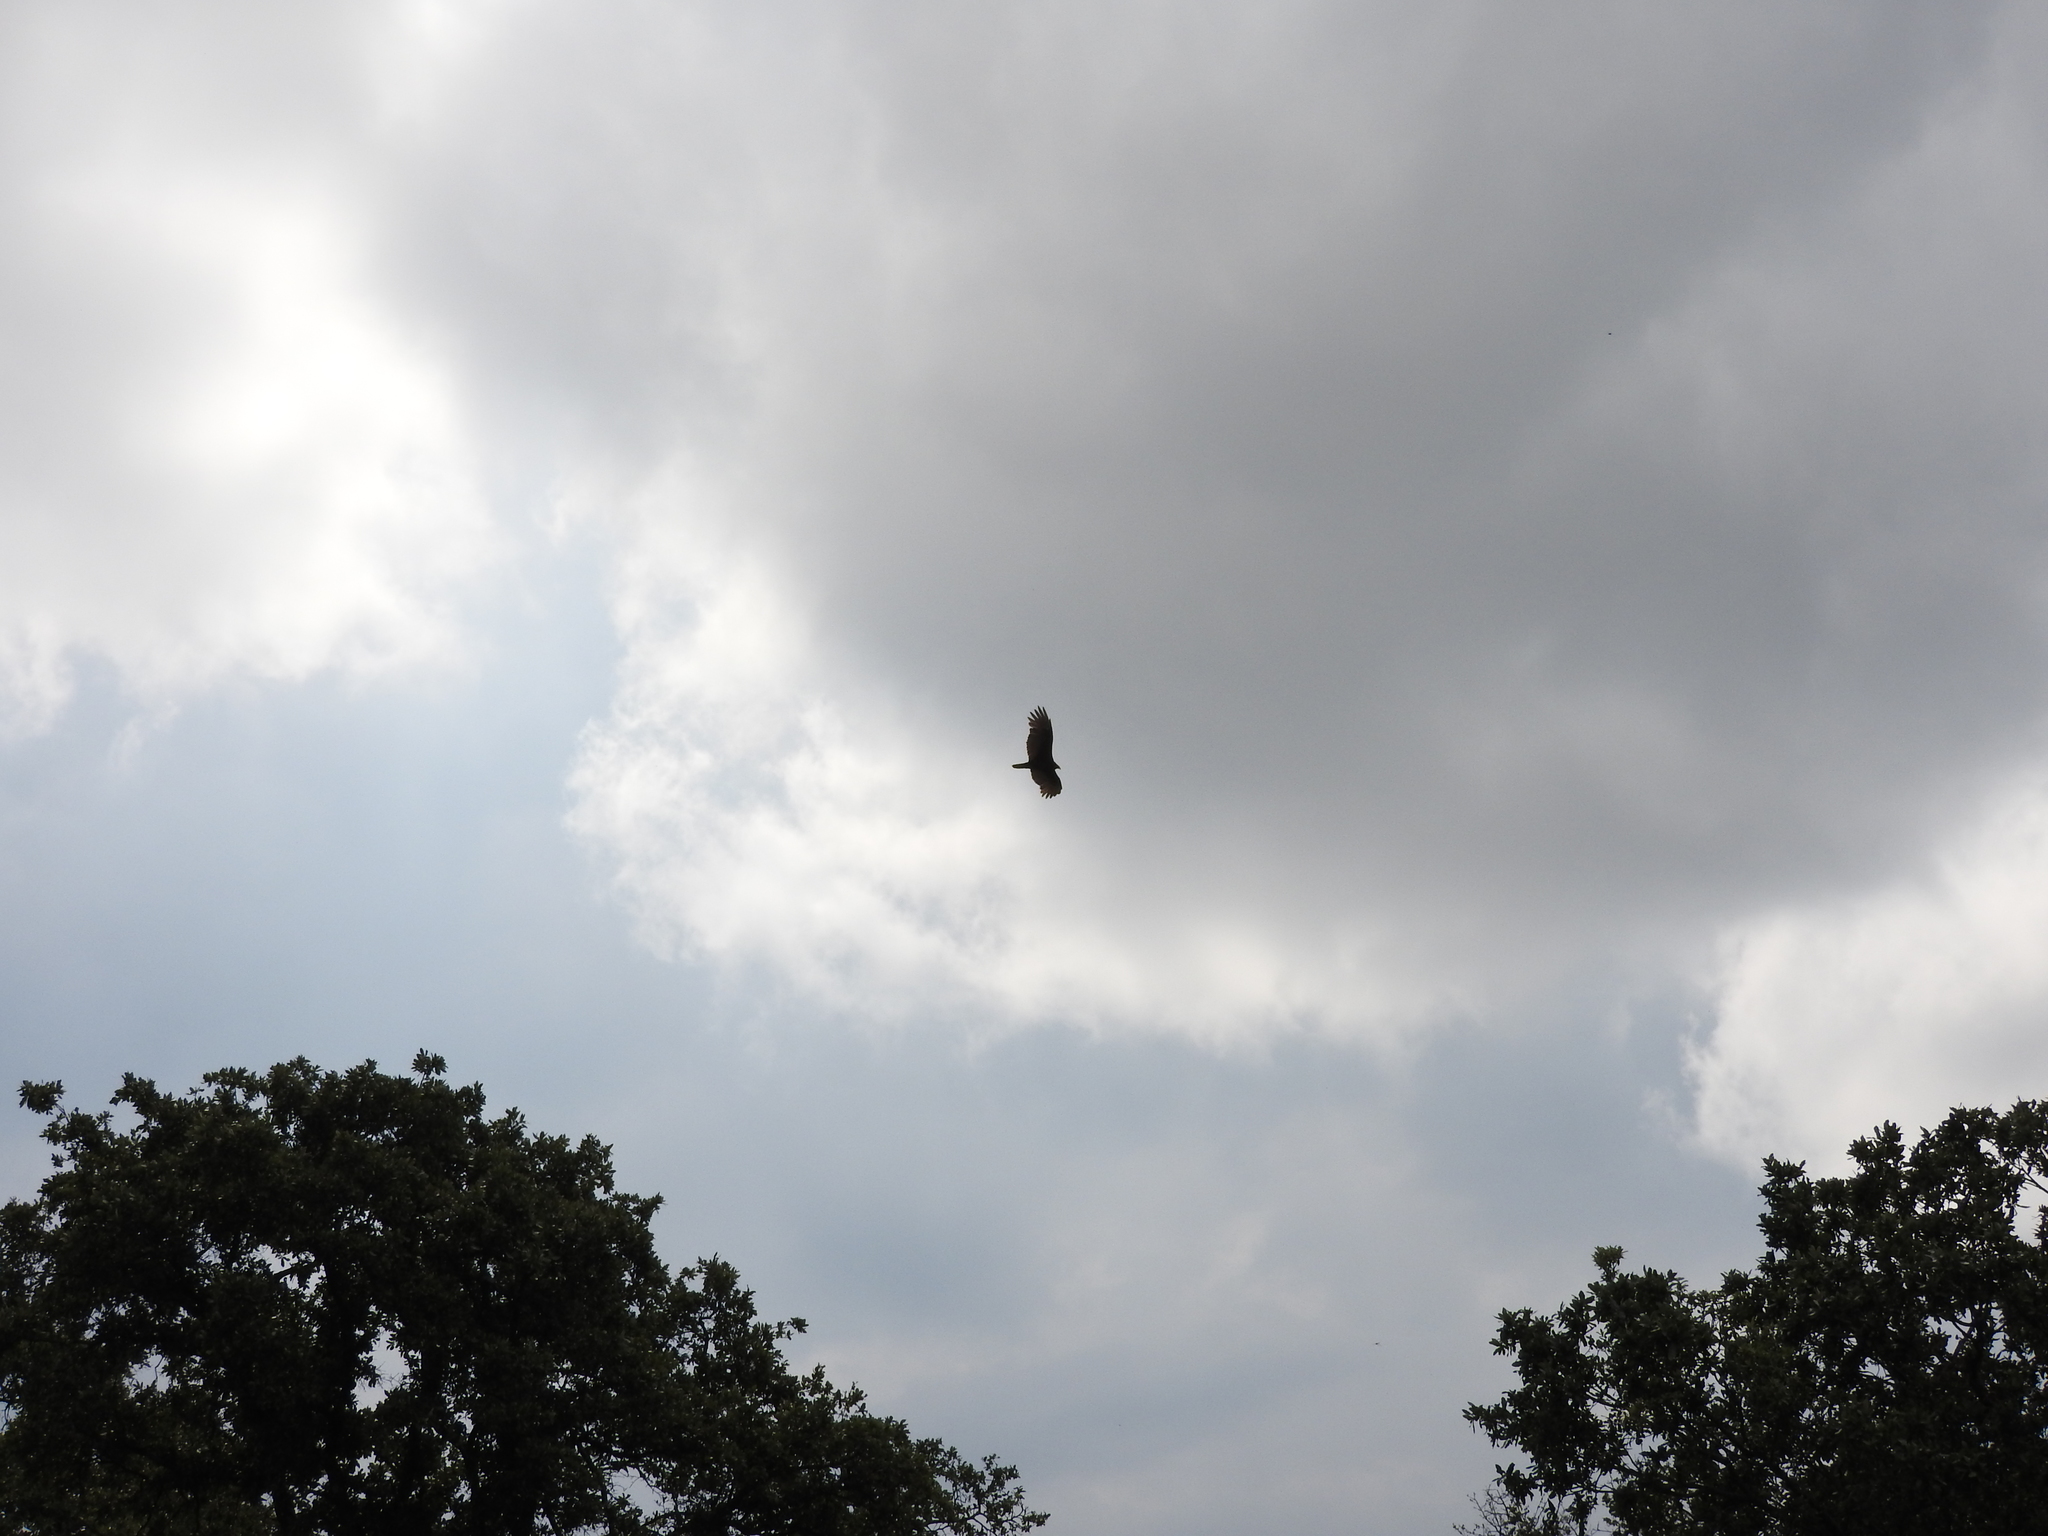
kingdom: Animalia
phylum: Chordata
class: Aves
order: Accipitriformes
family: Cathartidae
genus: Cathartes
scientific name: Cathartes aura
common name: Turkey vulture
